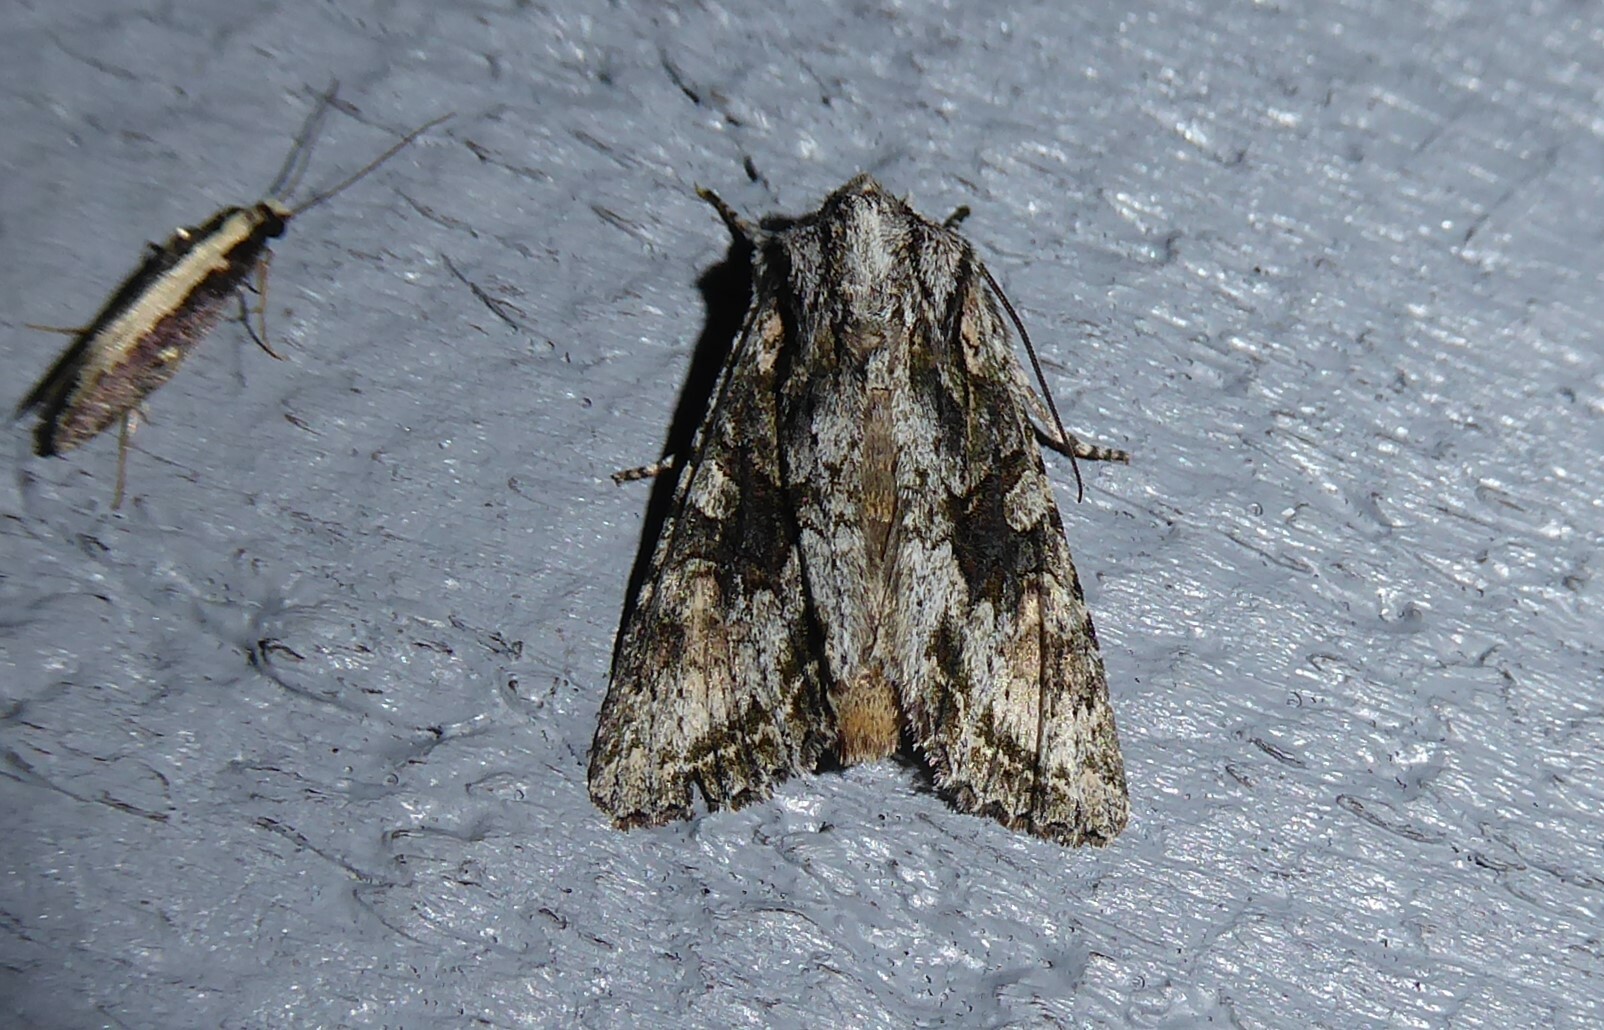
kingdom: Animalia
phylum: Arthropoda
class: Insecta
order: Lepidoptera
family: Noctuidae
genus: Ichneutica
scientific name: Ichneutica mutans
